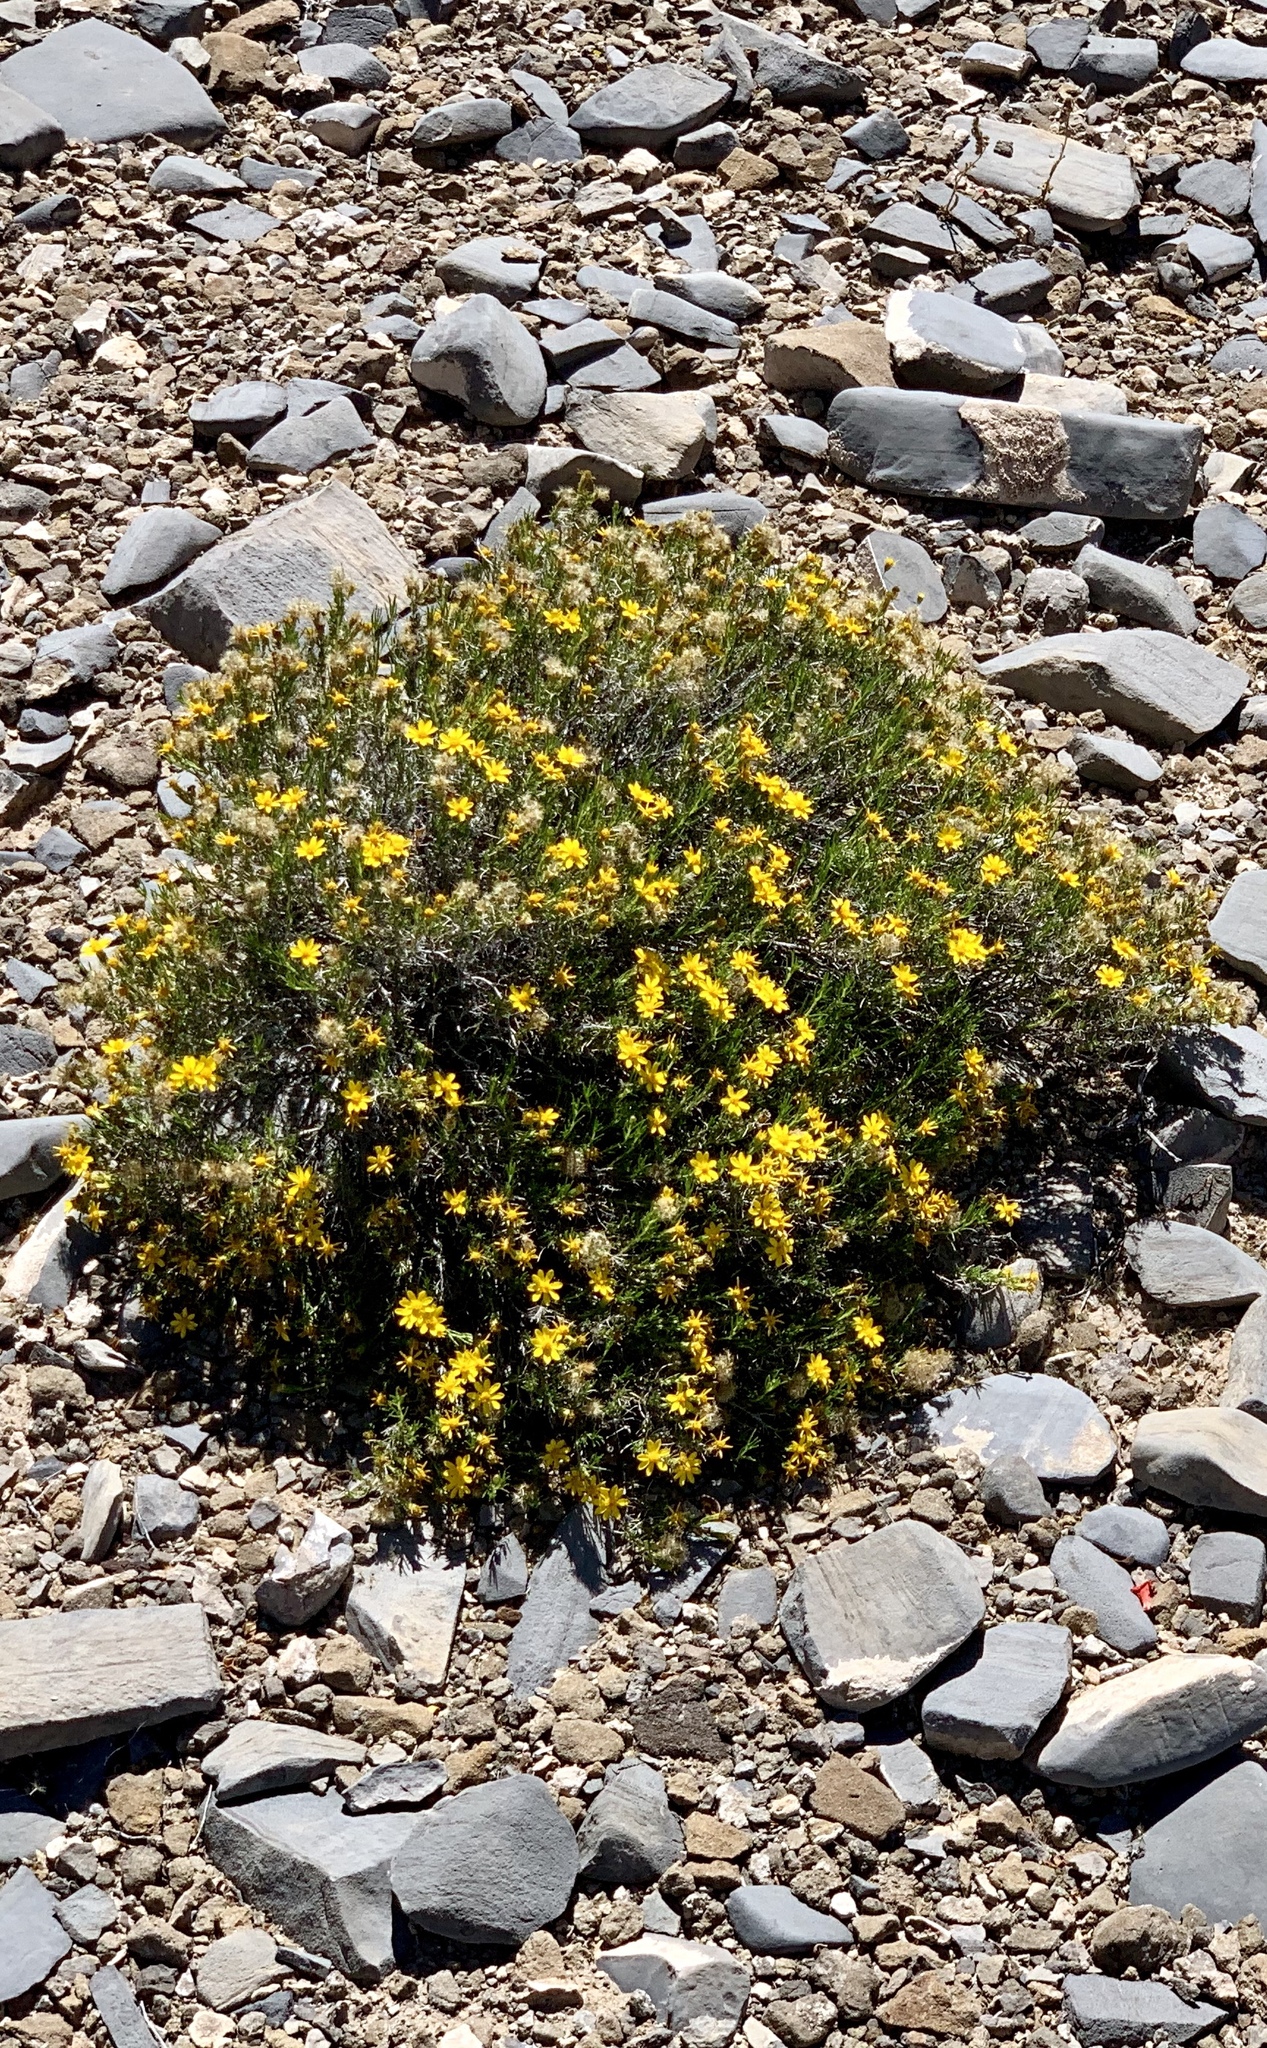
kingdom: Plantae
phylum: Tracheophyta
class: Magnoliopsida
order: Asterales
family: Asteraceae
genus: Thymophylla
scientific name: Thymophylla acerosa
